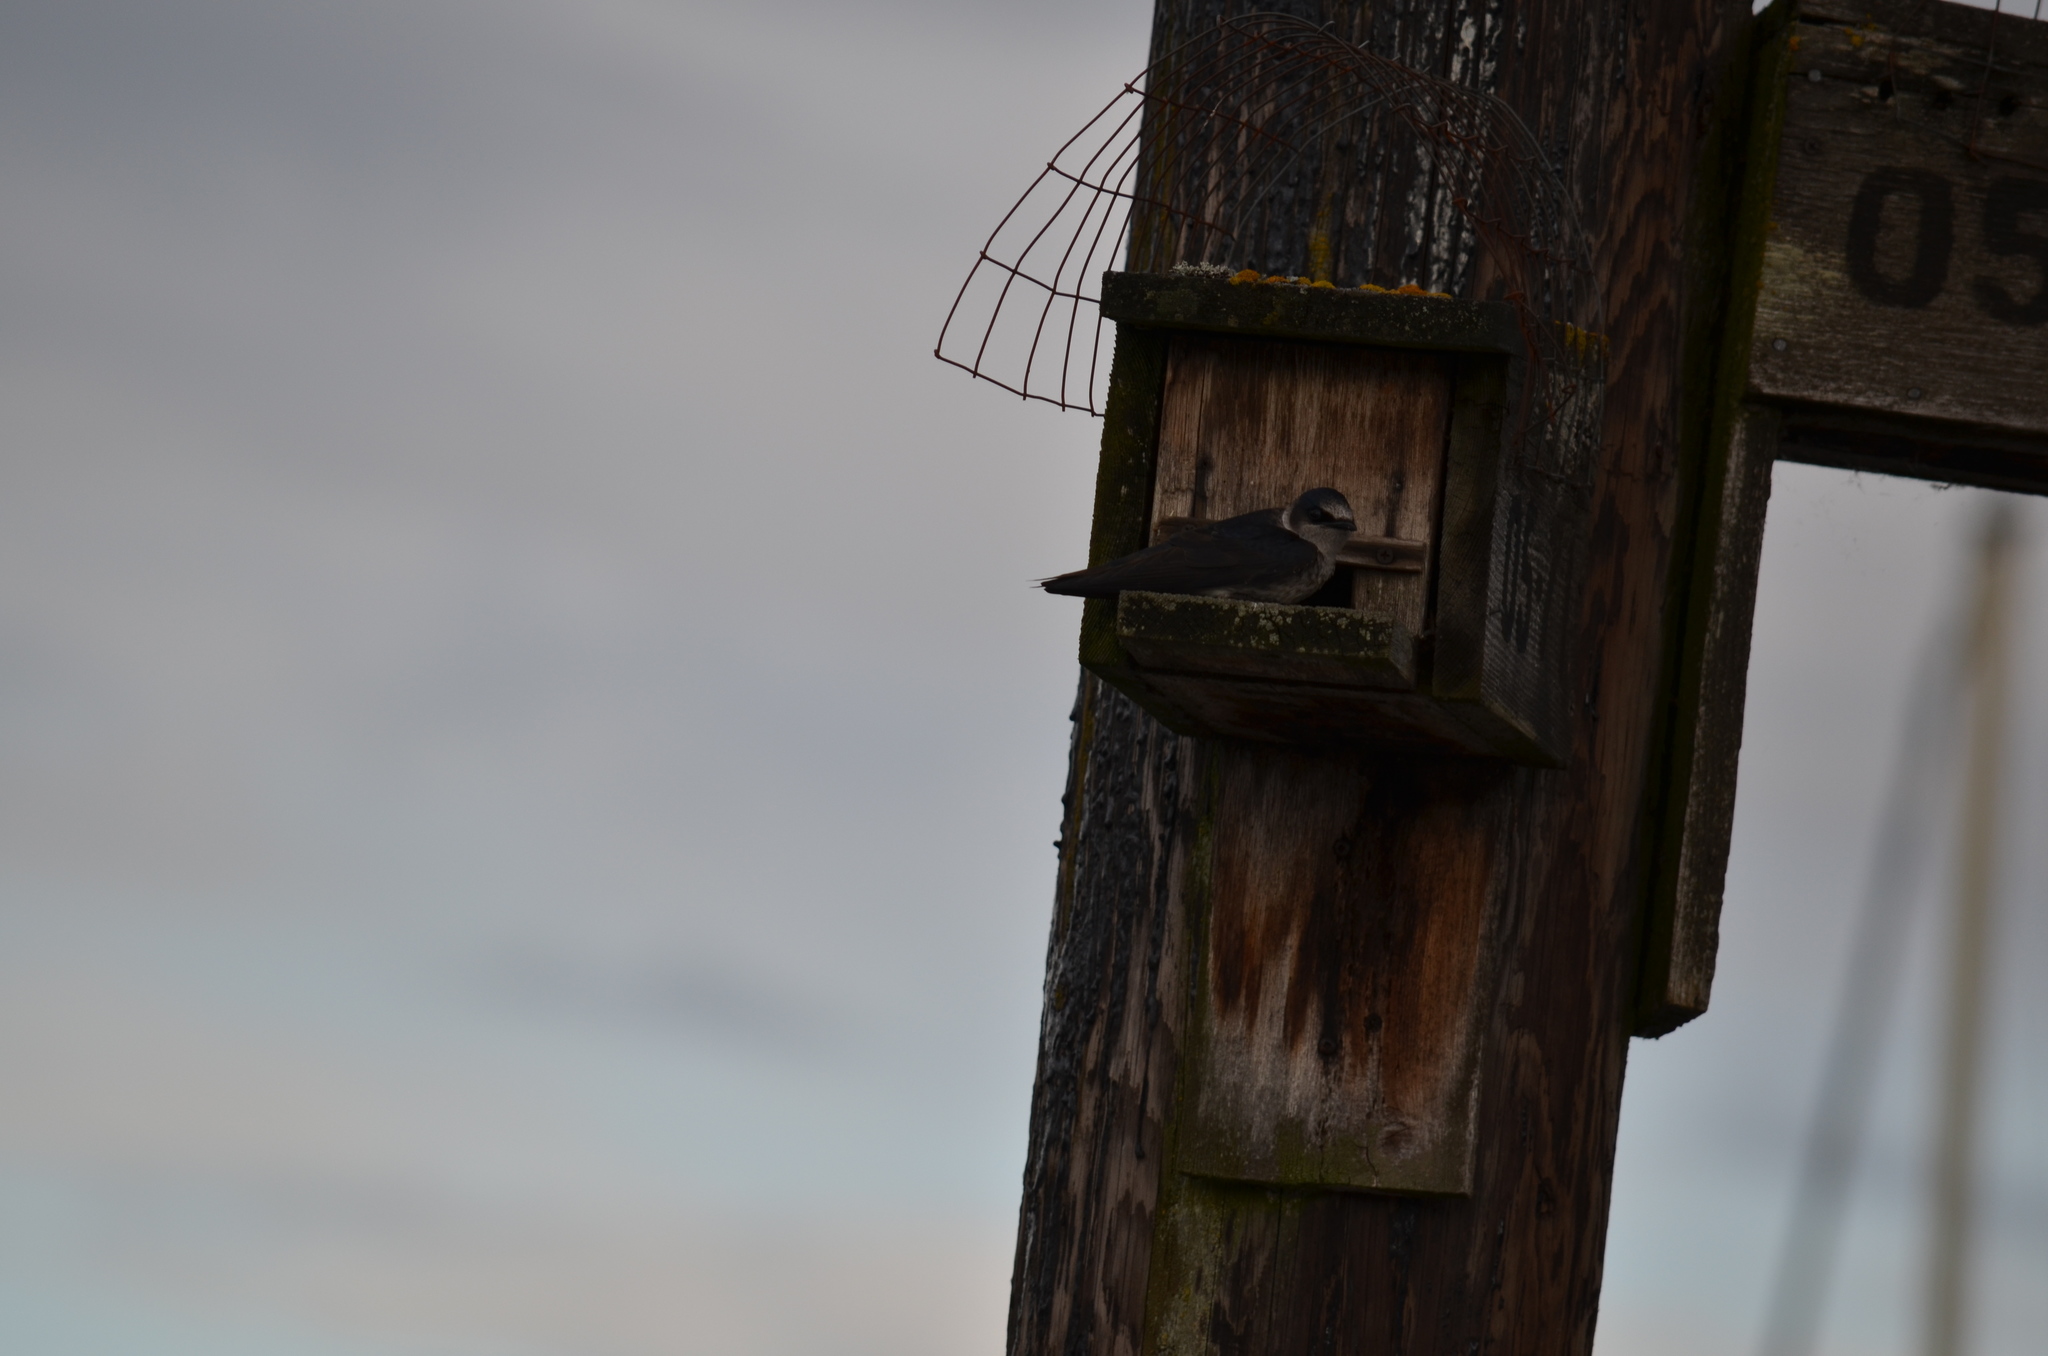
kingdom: Animalia
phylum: Chordata
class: Aves
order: Passeriformes
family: Hirundinidae
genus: Progne
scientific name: Progne subis
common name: Purple martin
